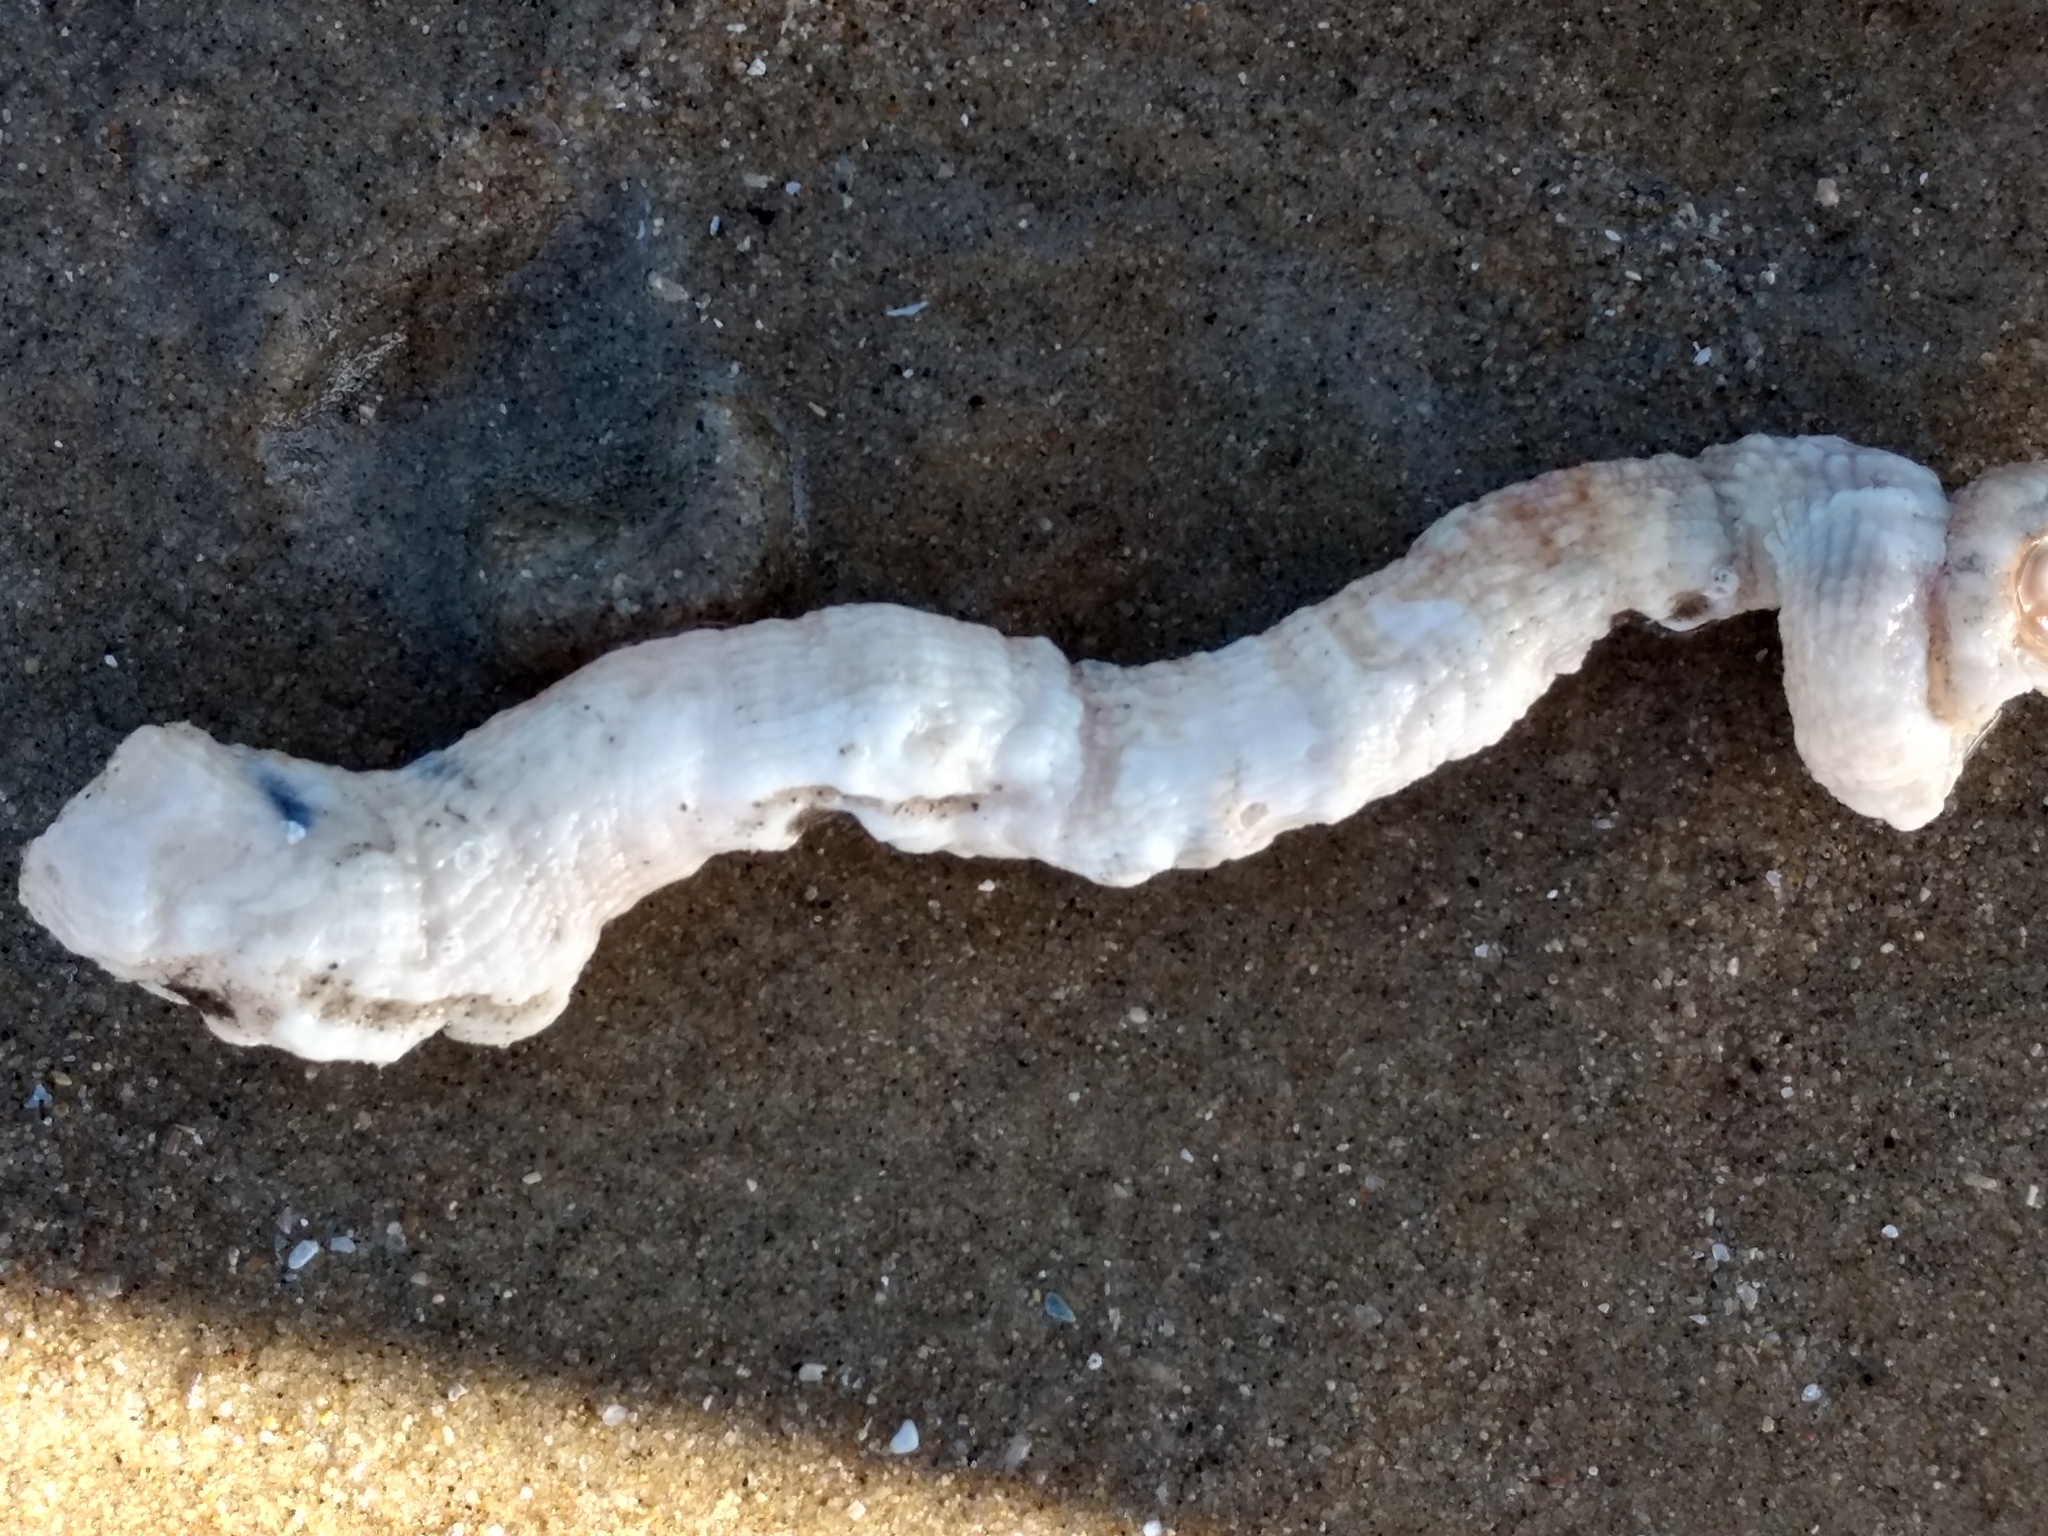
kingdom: Animalia
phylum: Mollusca
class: Gastropoda
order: Littorinimorpha
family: Vermetidae
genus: Thylacodes
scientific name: Thylacodes squamigerus
